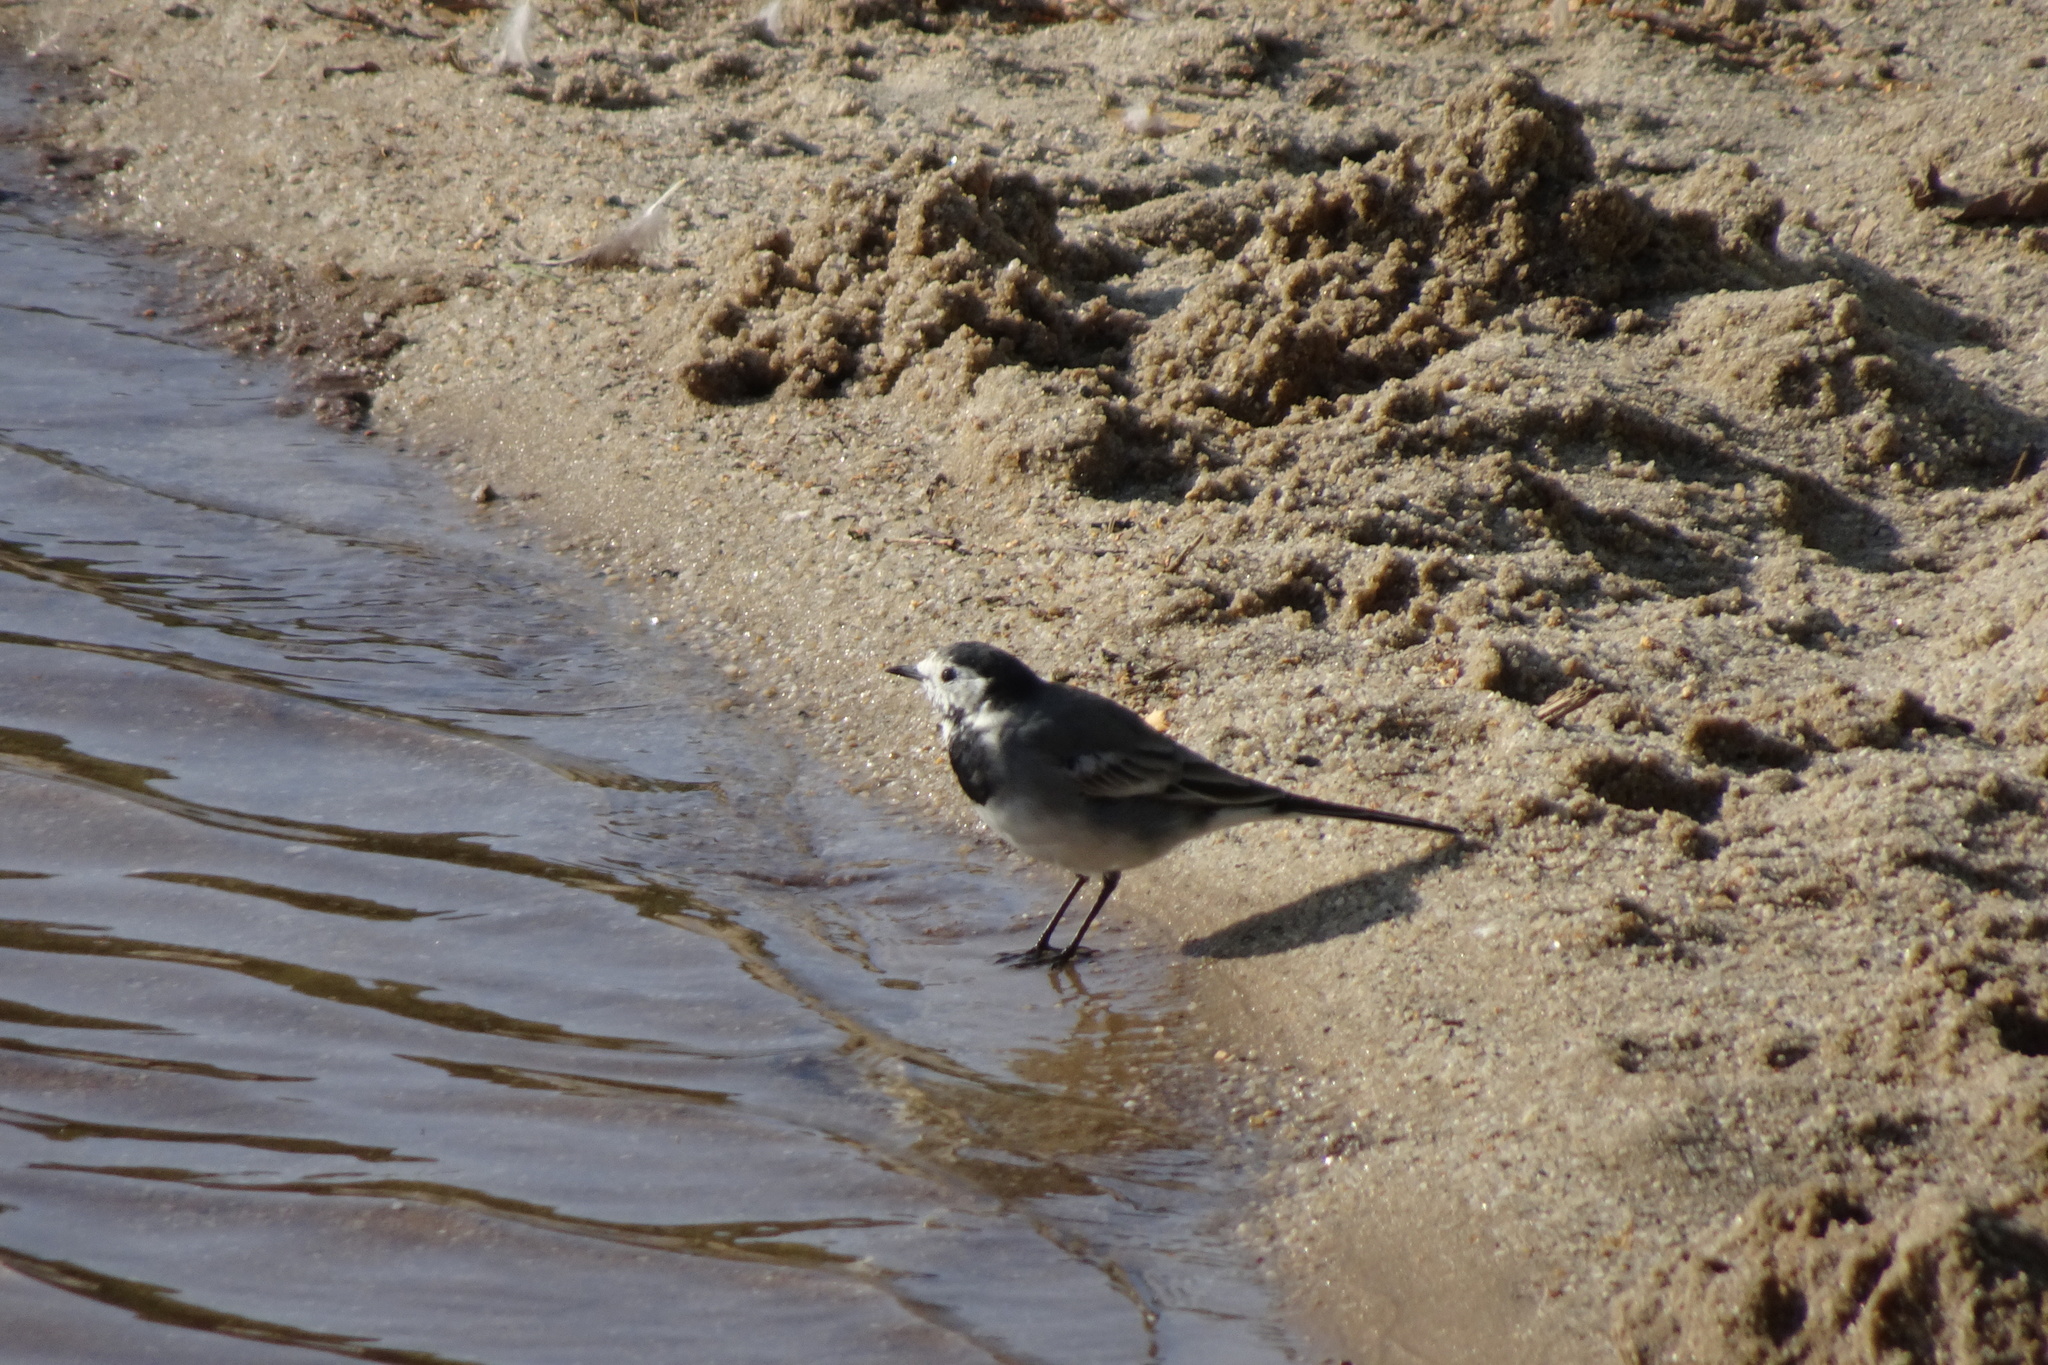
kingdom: Animalia
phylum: Chordata
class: Aves
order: Passeriformes
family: Motacillidae
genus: Motacilla
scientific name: Motacilla alba
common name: White wagtail
